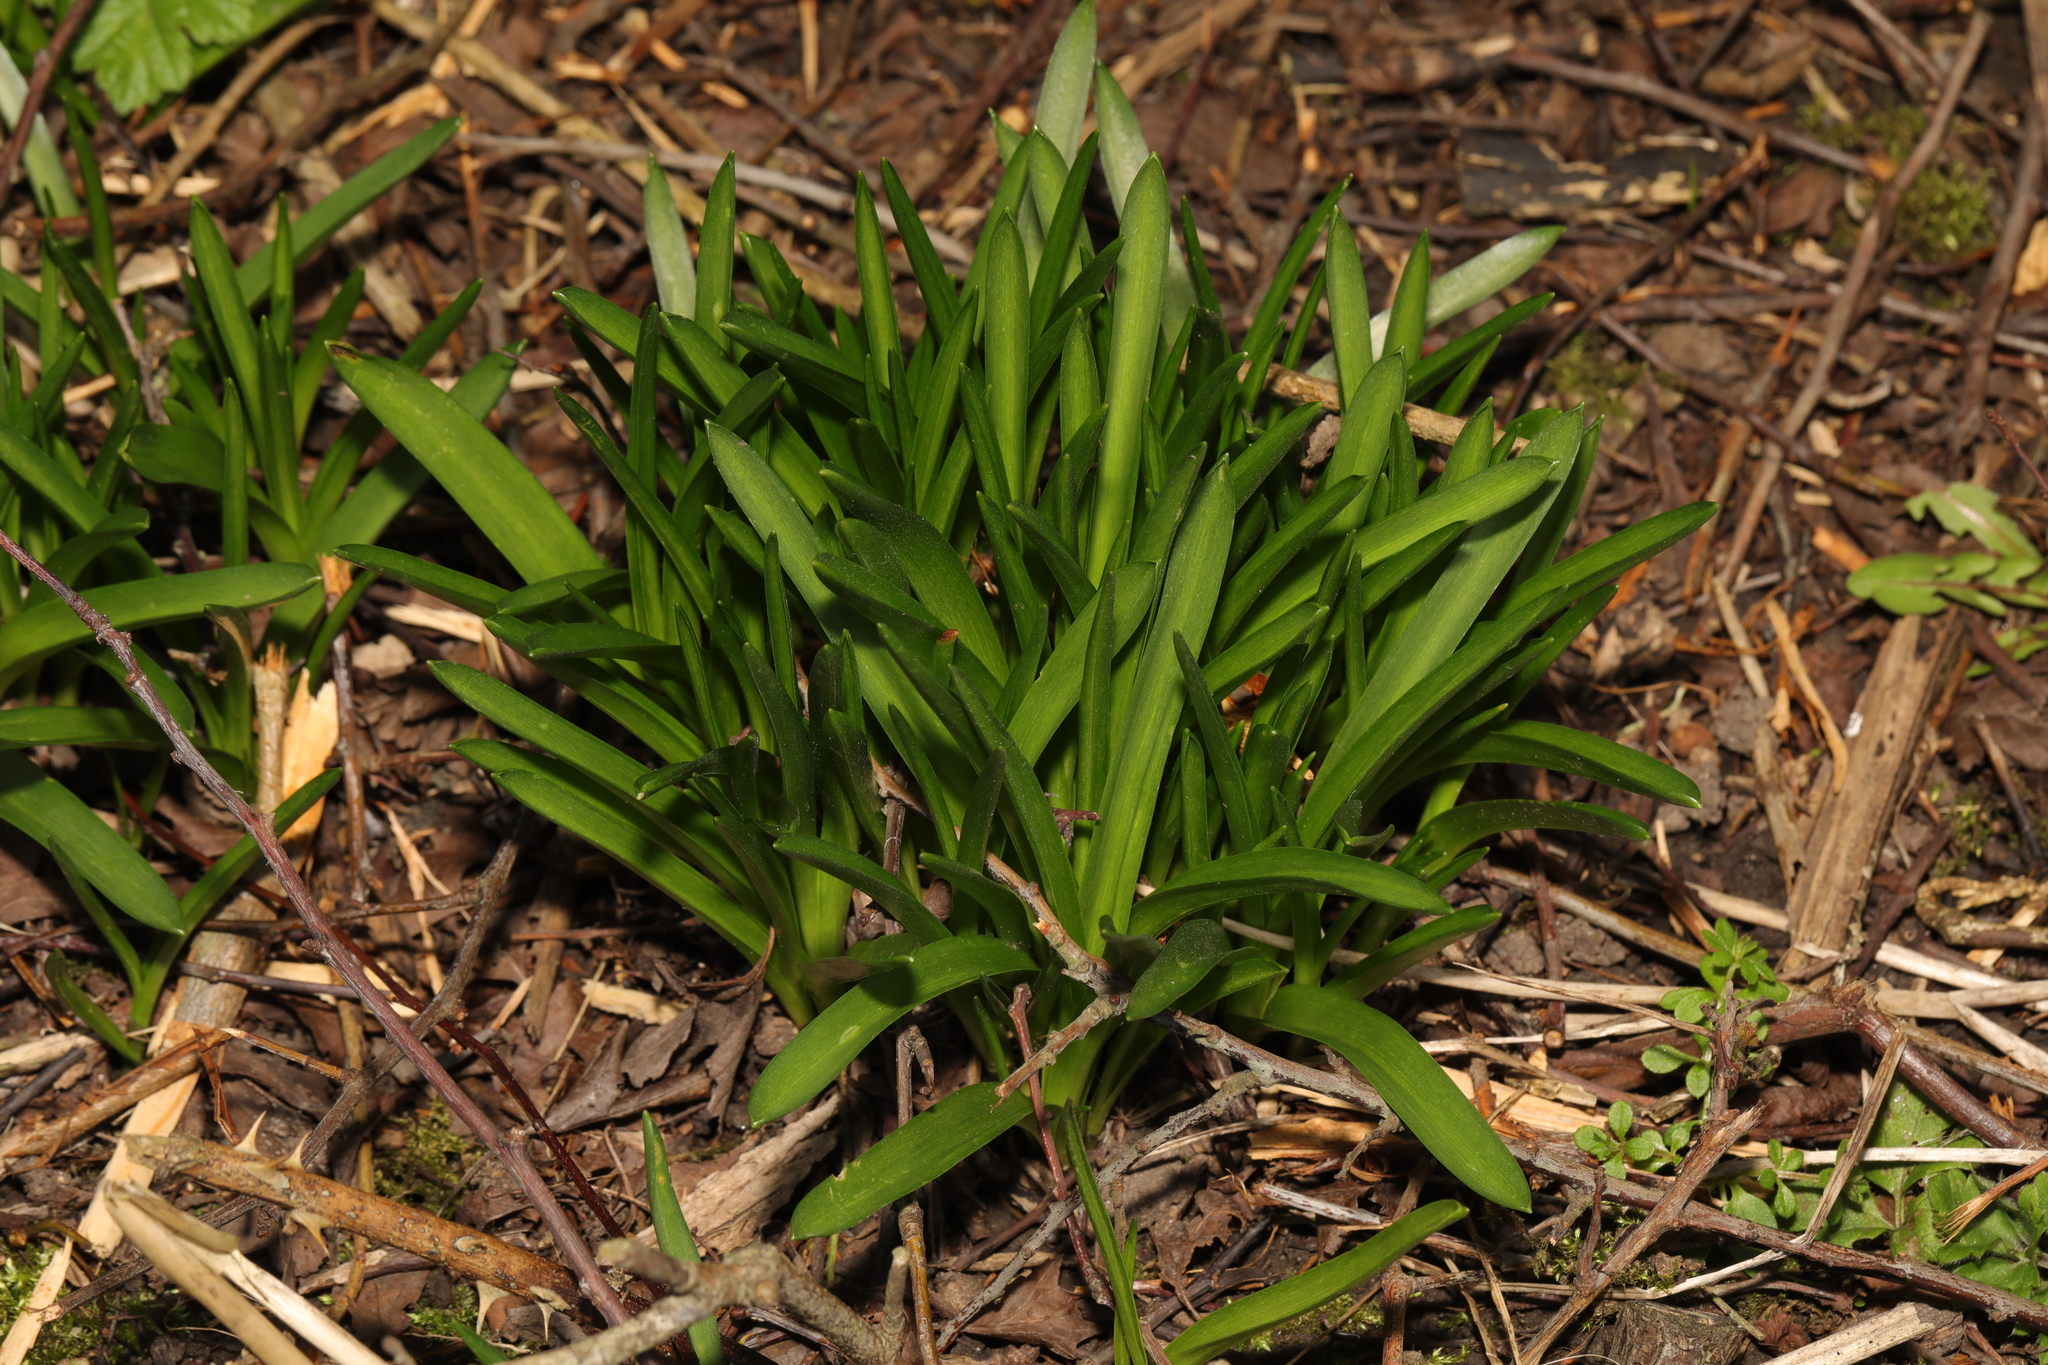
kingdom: Plantae
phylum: Tracheophyta
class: Liliopsida
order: Asparagales
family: Asparagaceae
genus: Hyacinthoides
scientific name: Hyacinthoides massartiana
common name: Hyacinthoides
